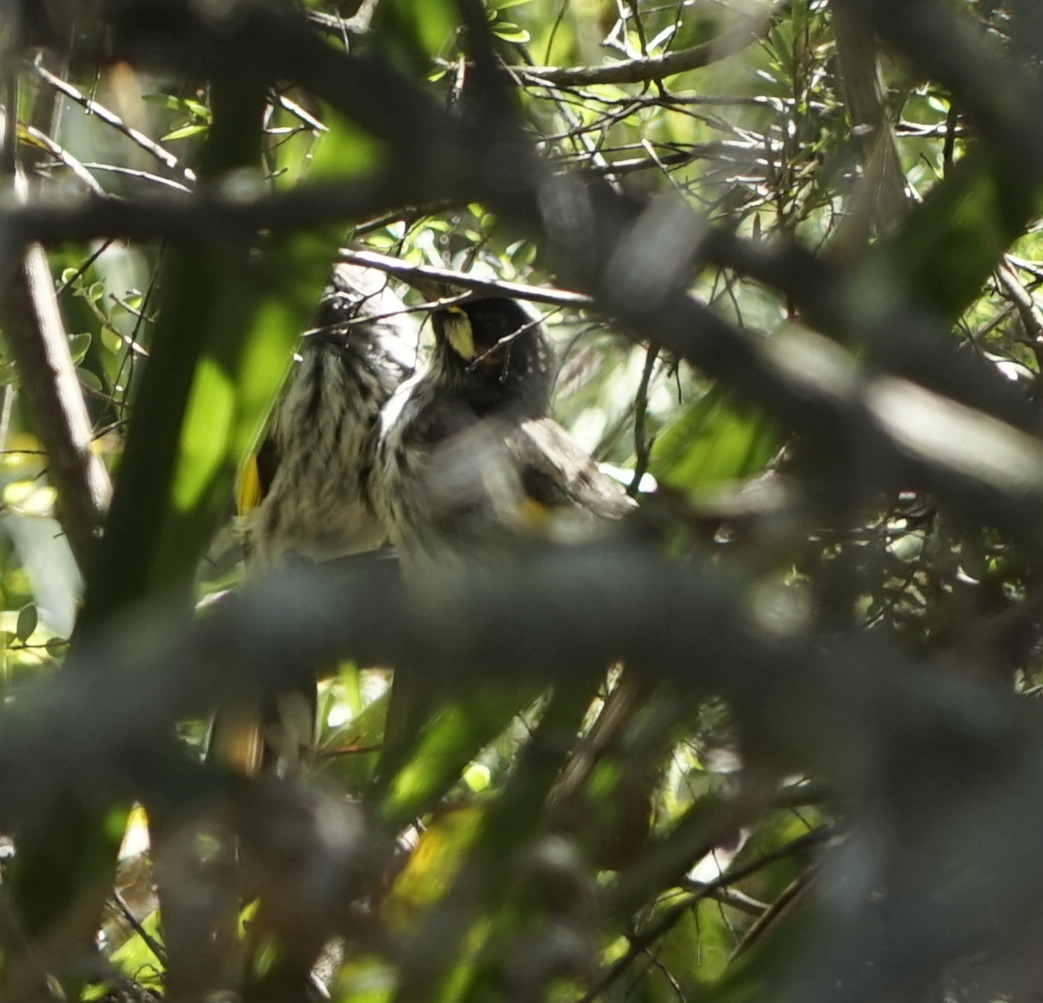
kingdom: Animalia
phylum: Chordata
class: Aves
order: Passeriformes
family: Meliphagidae
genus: Phylidonyris
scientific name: Phylidonyris novaehollandiae
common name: New holland honeyeater
